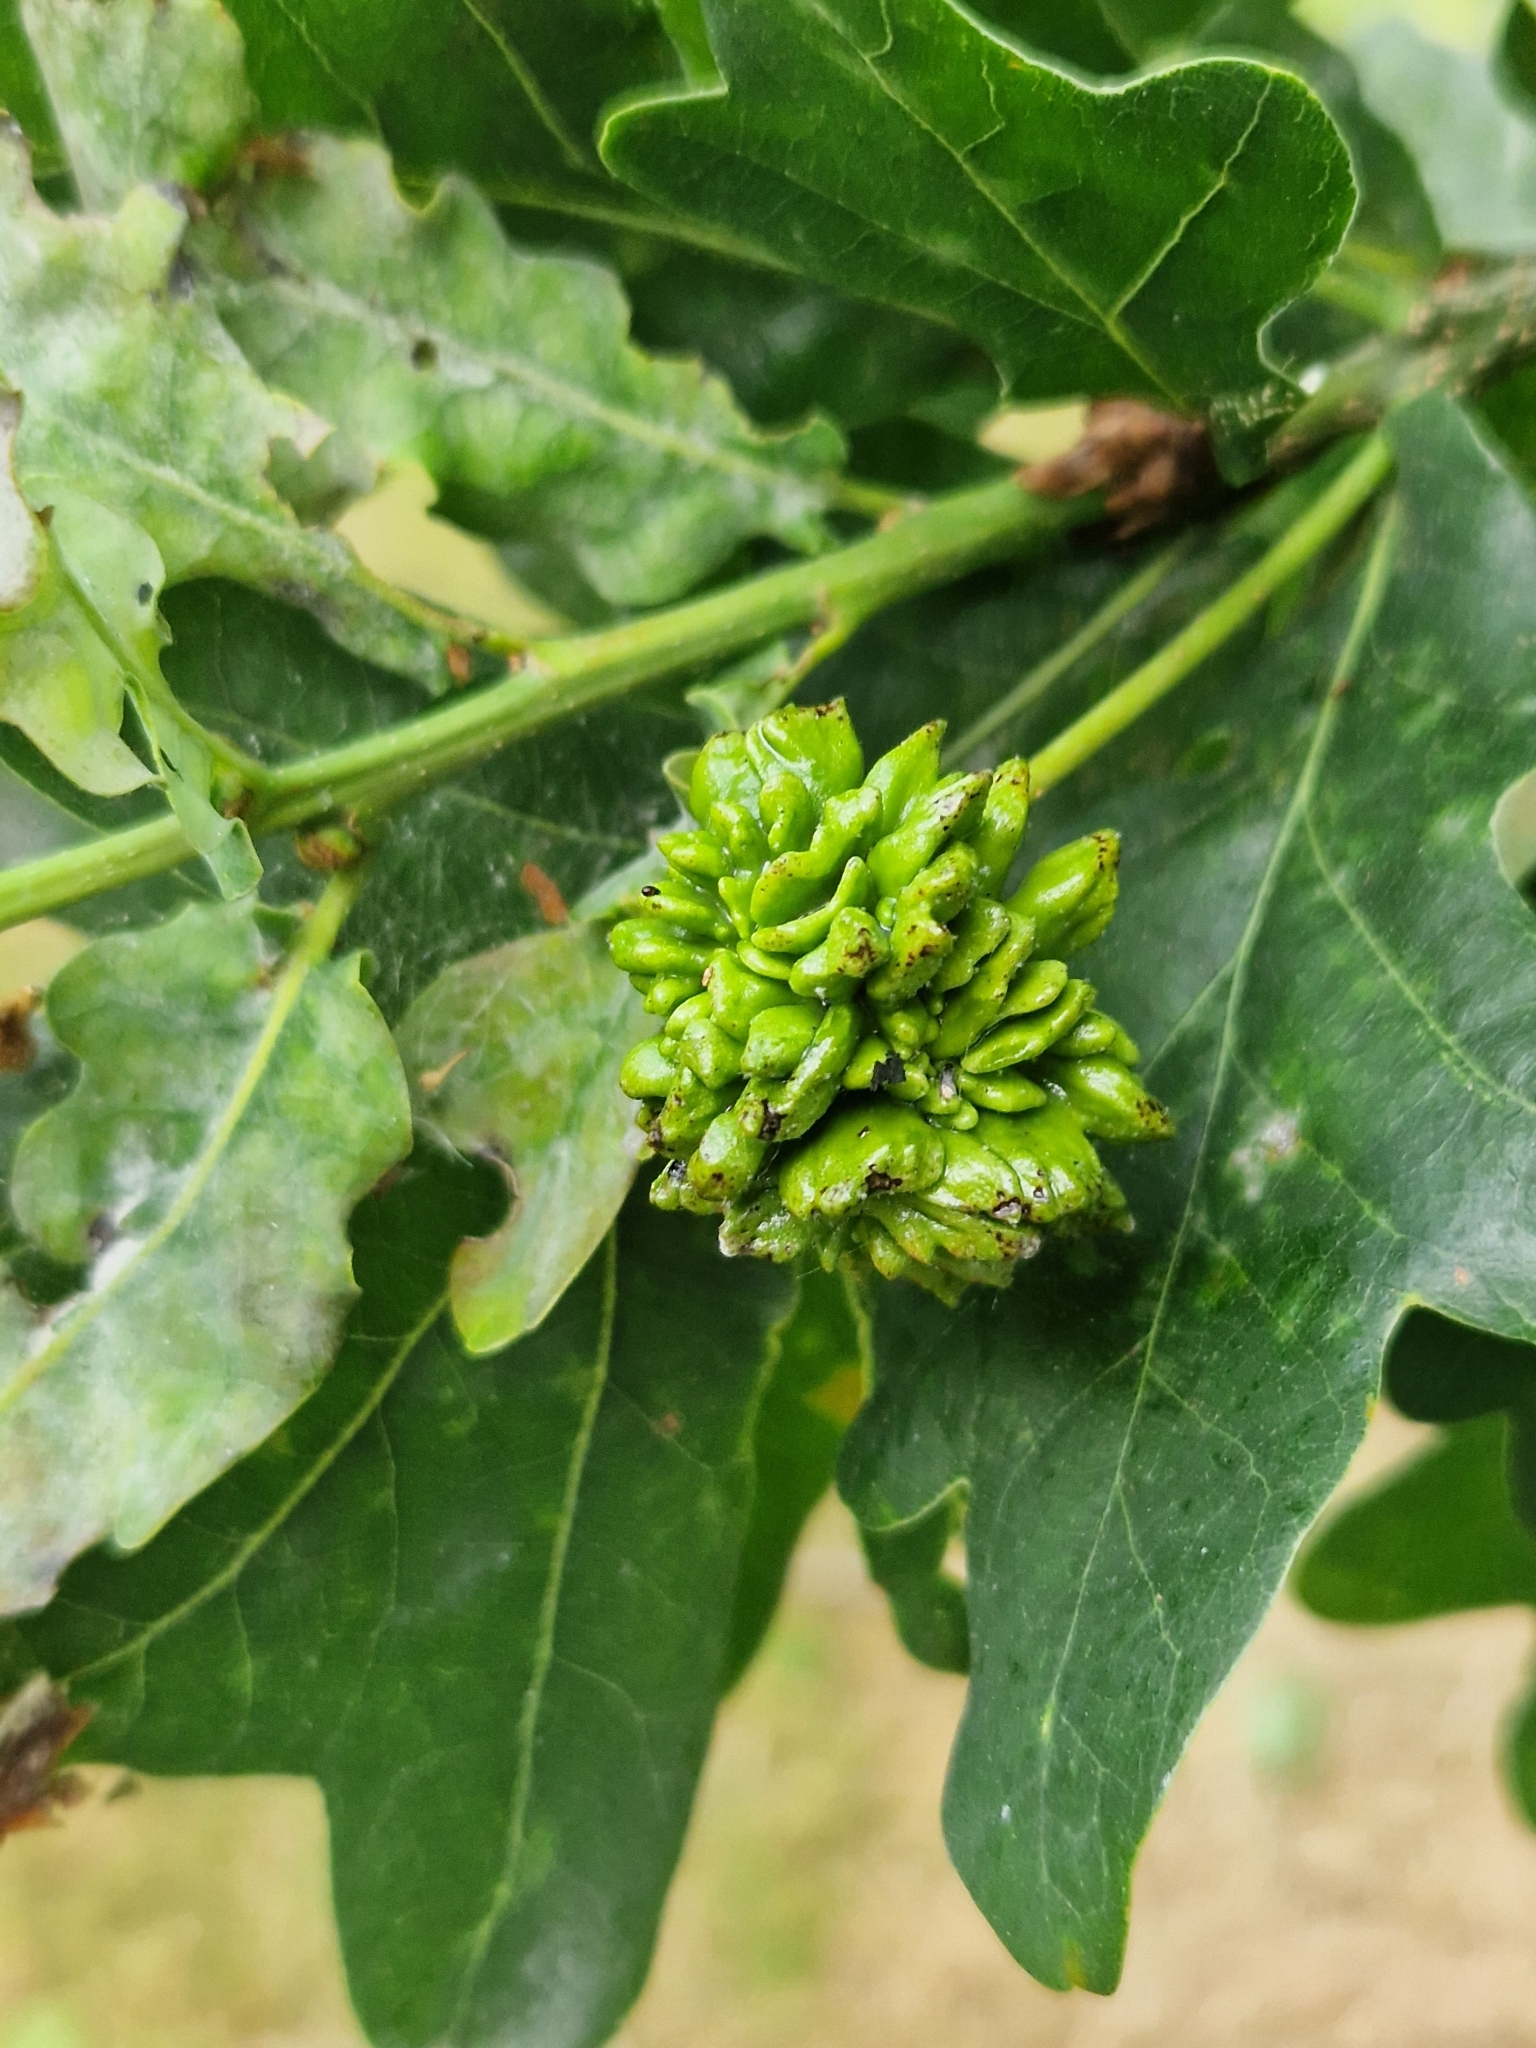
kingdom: Animalia
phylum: Arthropoda
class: Insecta
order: Hymenoptera
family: Cynipidae
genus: Andricus
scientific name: Andricus quercuscalicis
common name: Knopper gall
